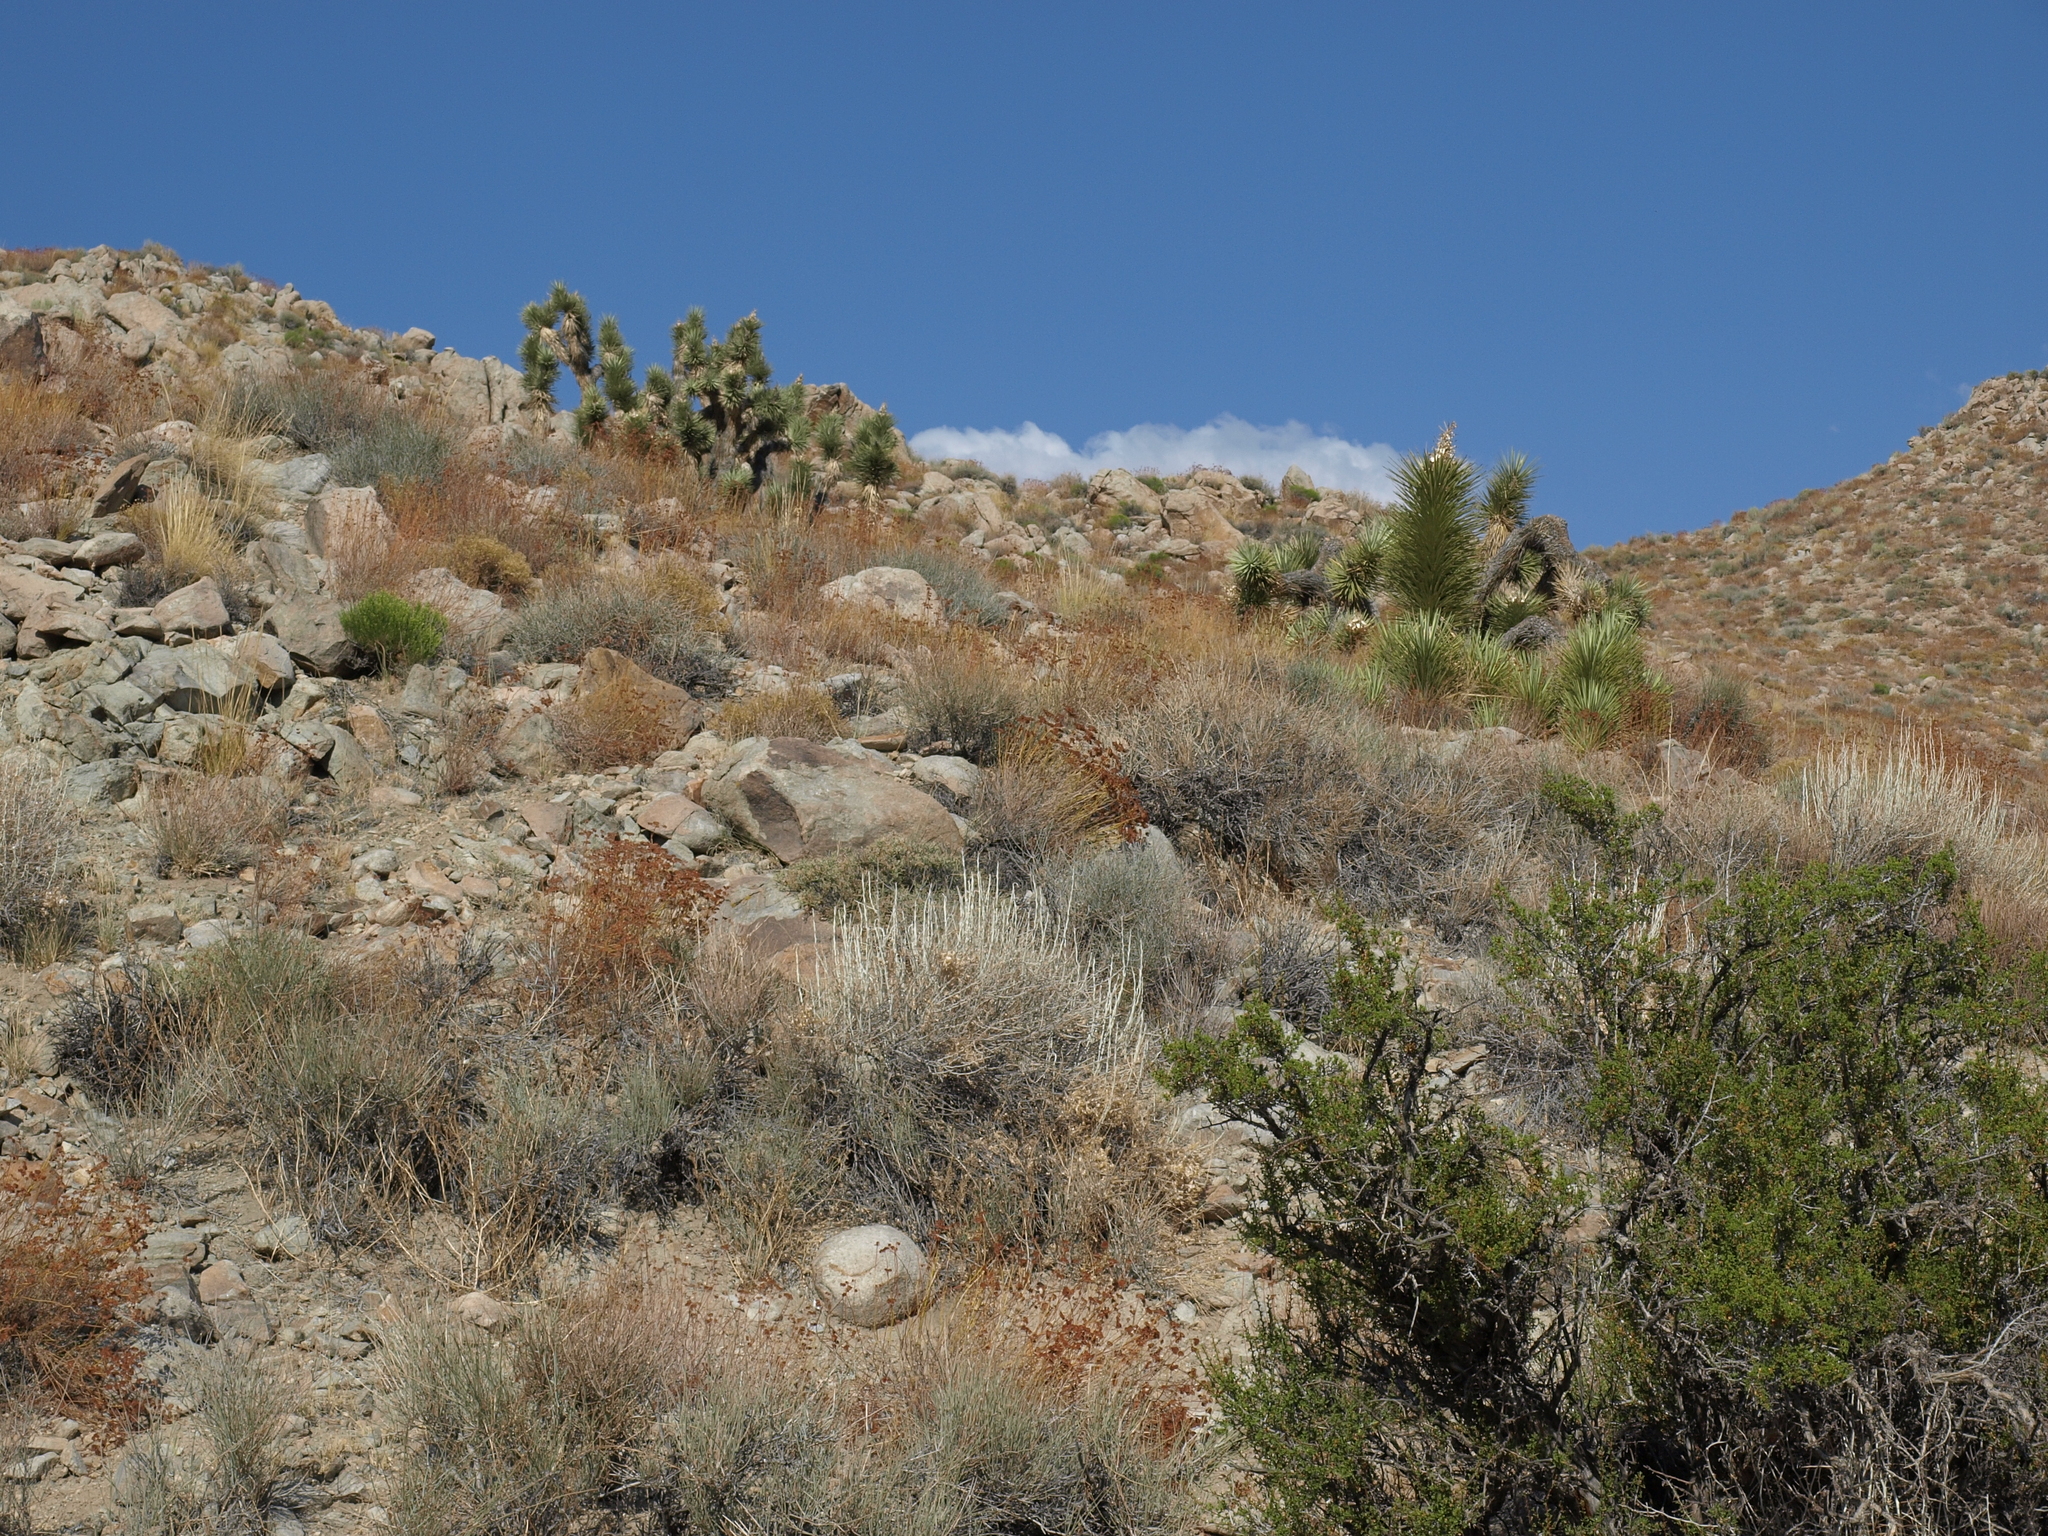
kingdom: Plantae
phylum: Tracheophyta
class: Liliopsida
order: Asparagales
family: Asparagaceae
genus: Yucca
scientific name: Yucca brevifolia
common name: Joshua tree
